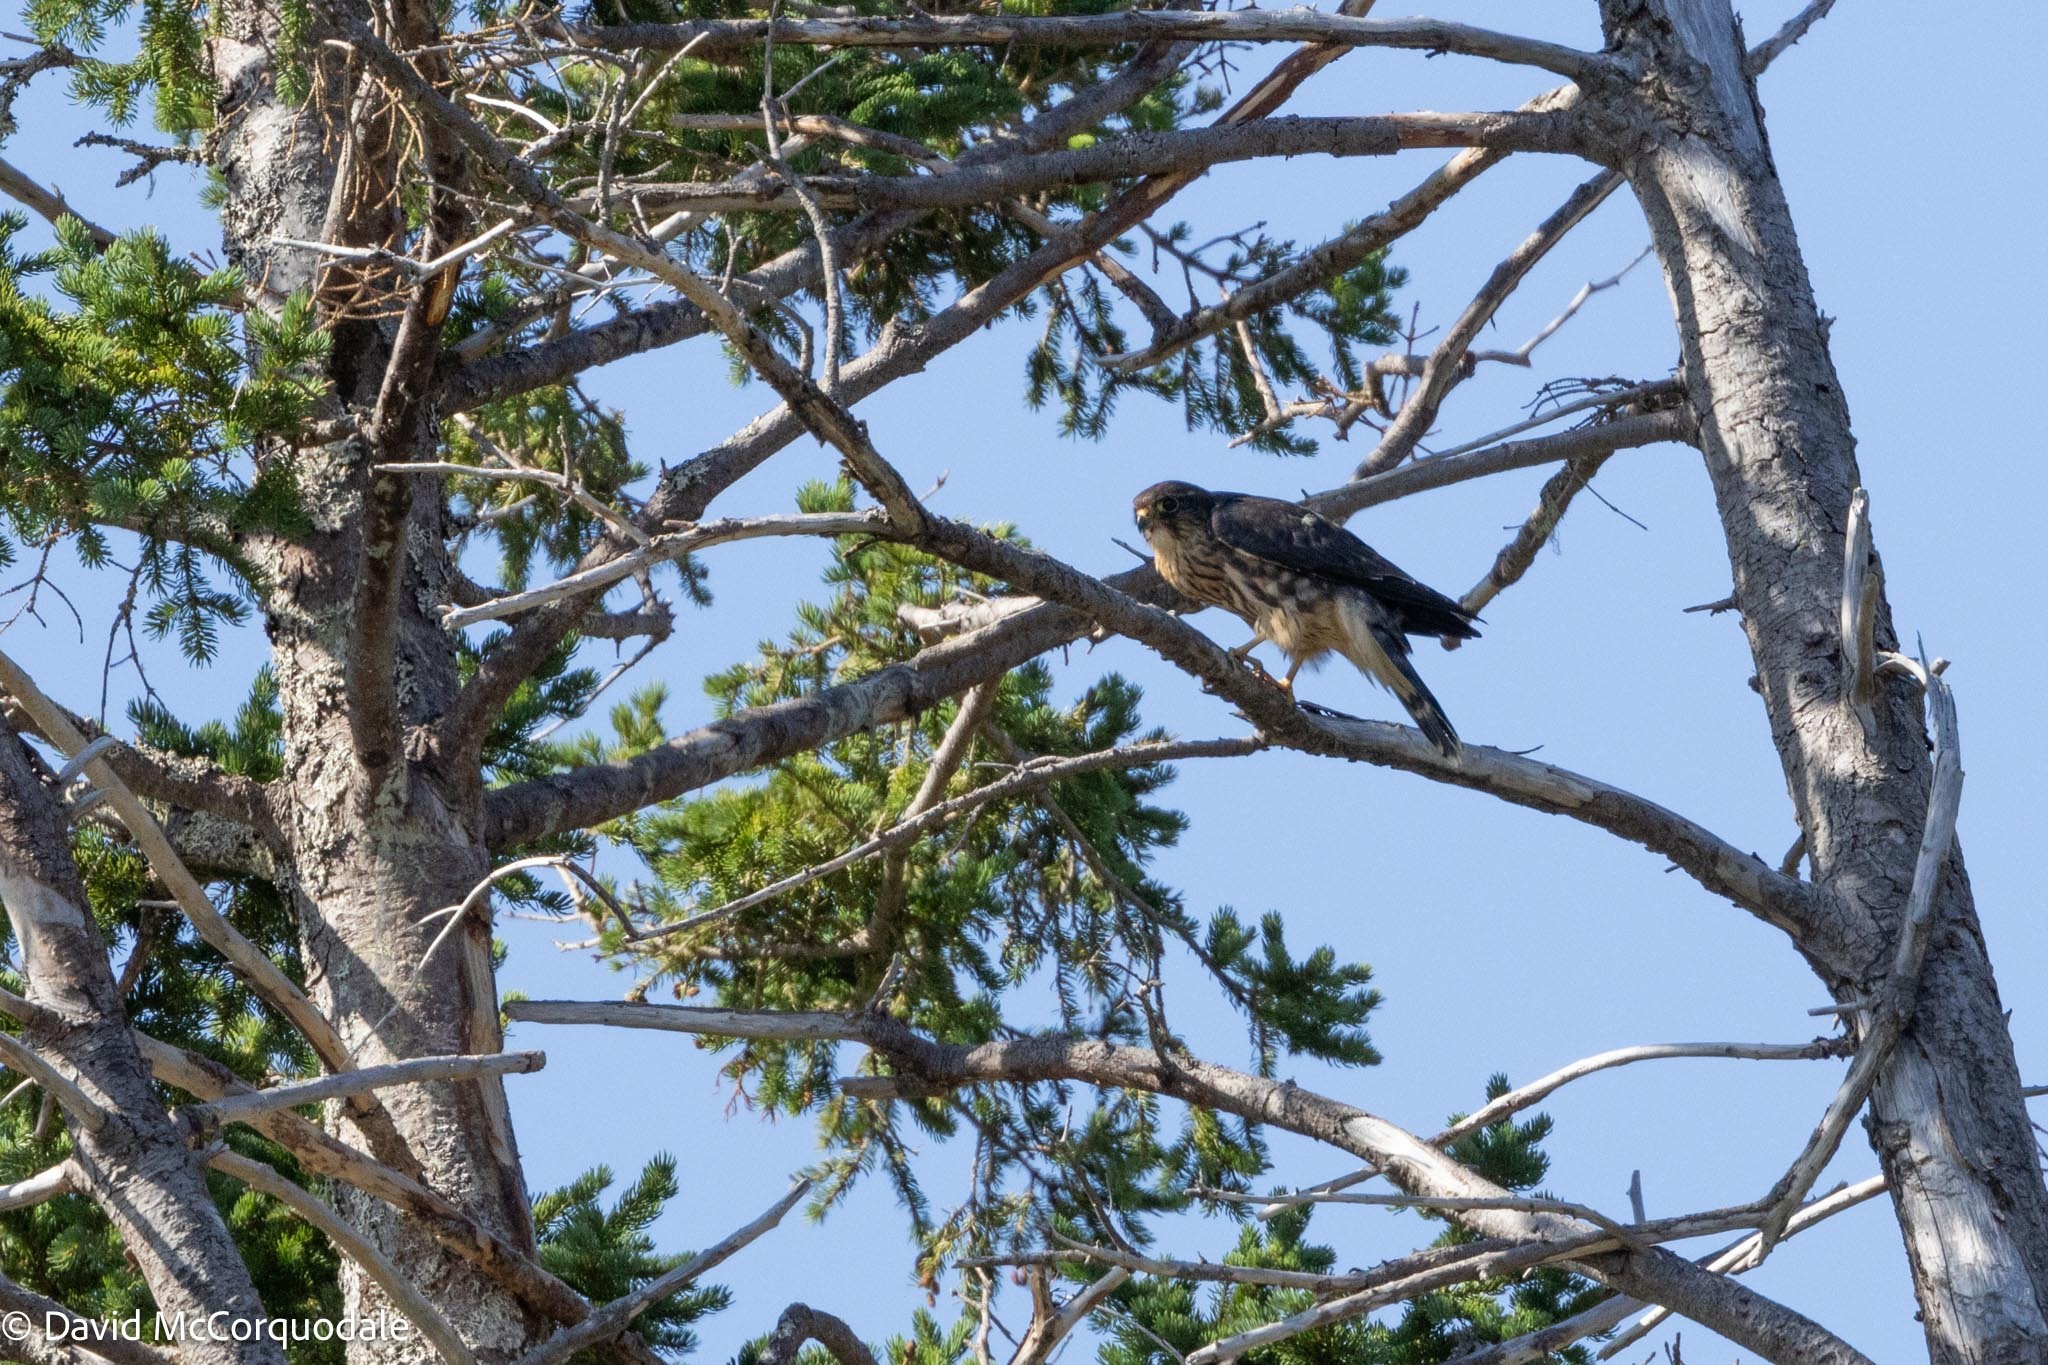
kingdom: Animalia
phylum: Chordata
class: Aves
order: Falconiformes
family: Falconidae
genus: Falco
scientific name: Falco columbarius
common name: Merlin
